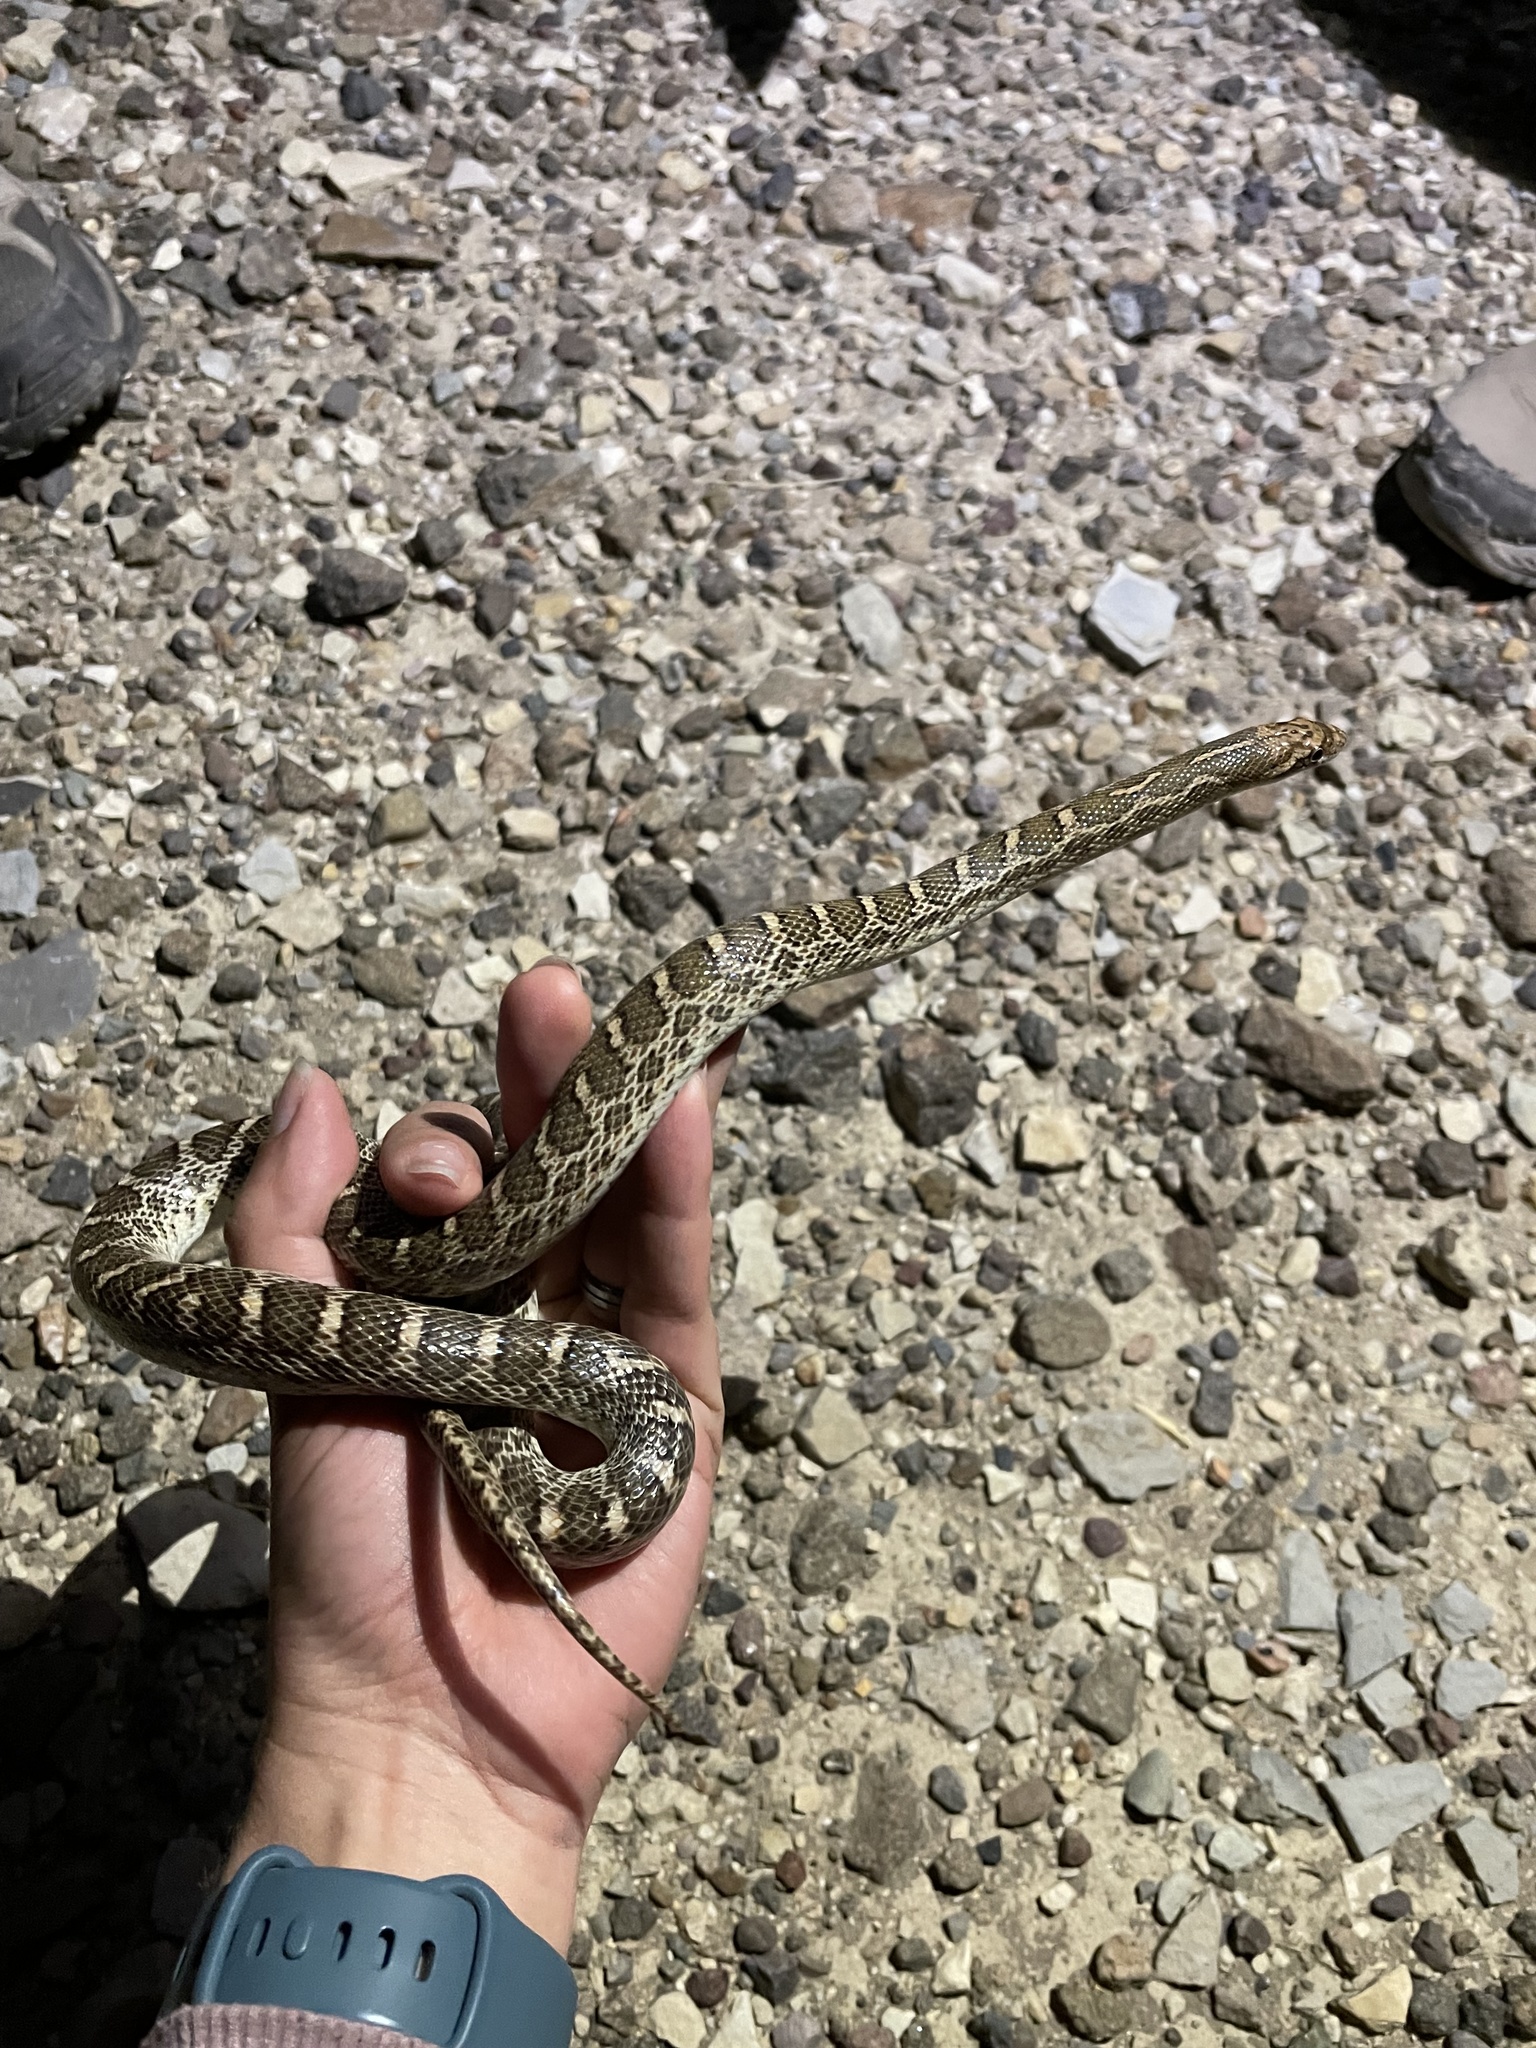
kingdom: Animalia
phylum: Chordata
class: Squamata
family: Colubridae
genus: Arizona
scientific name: Arizona elegans
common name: Glossy snake
